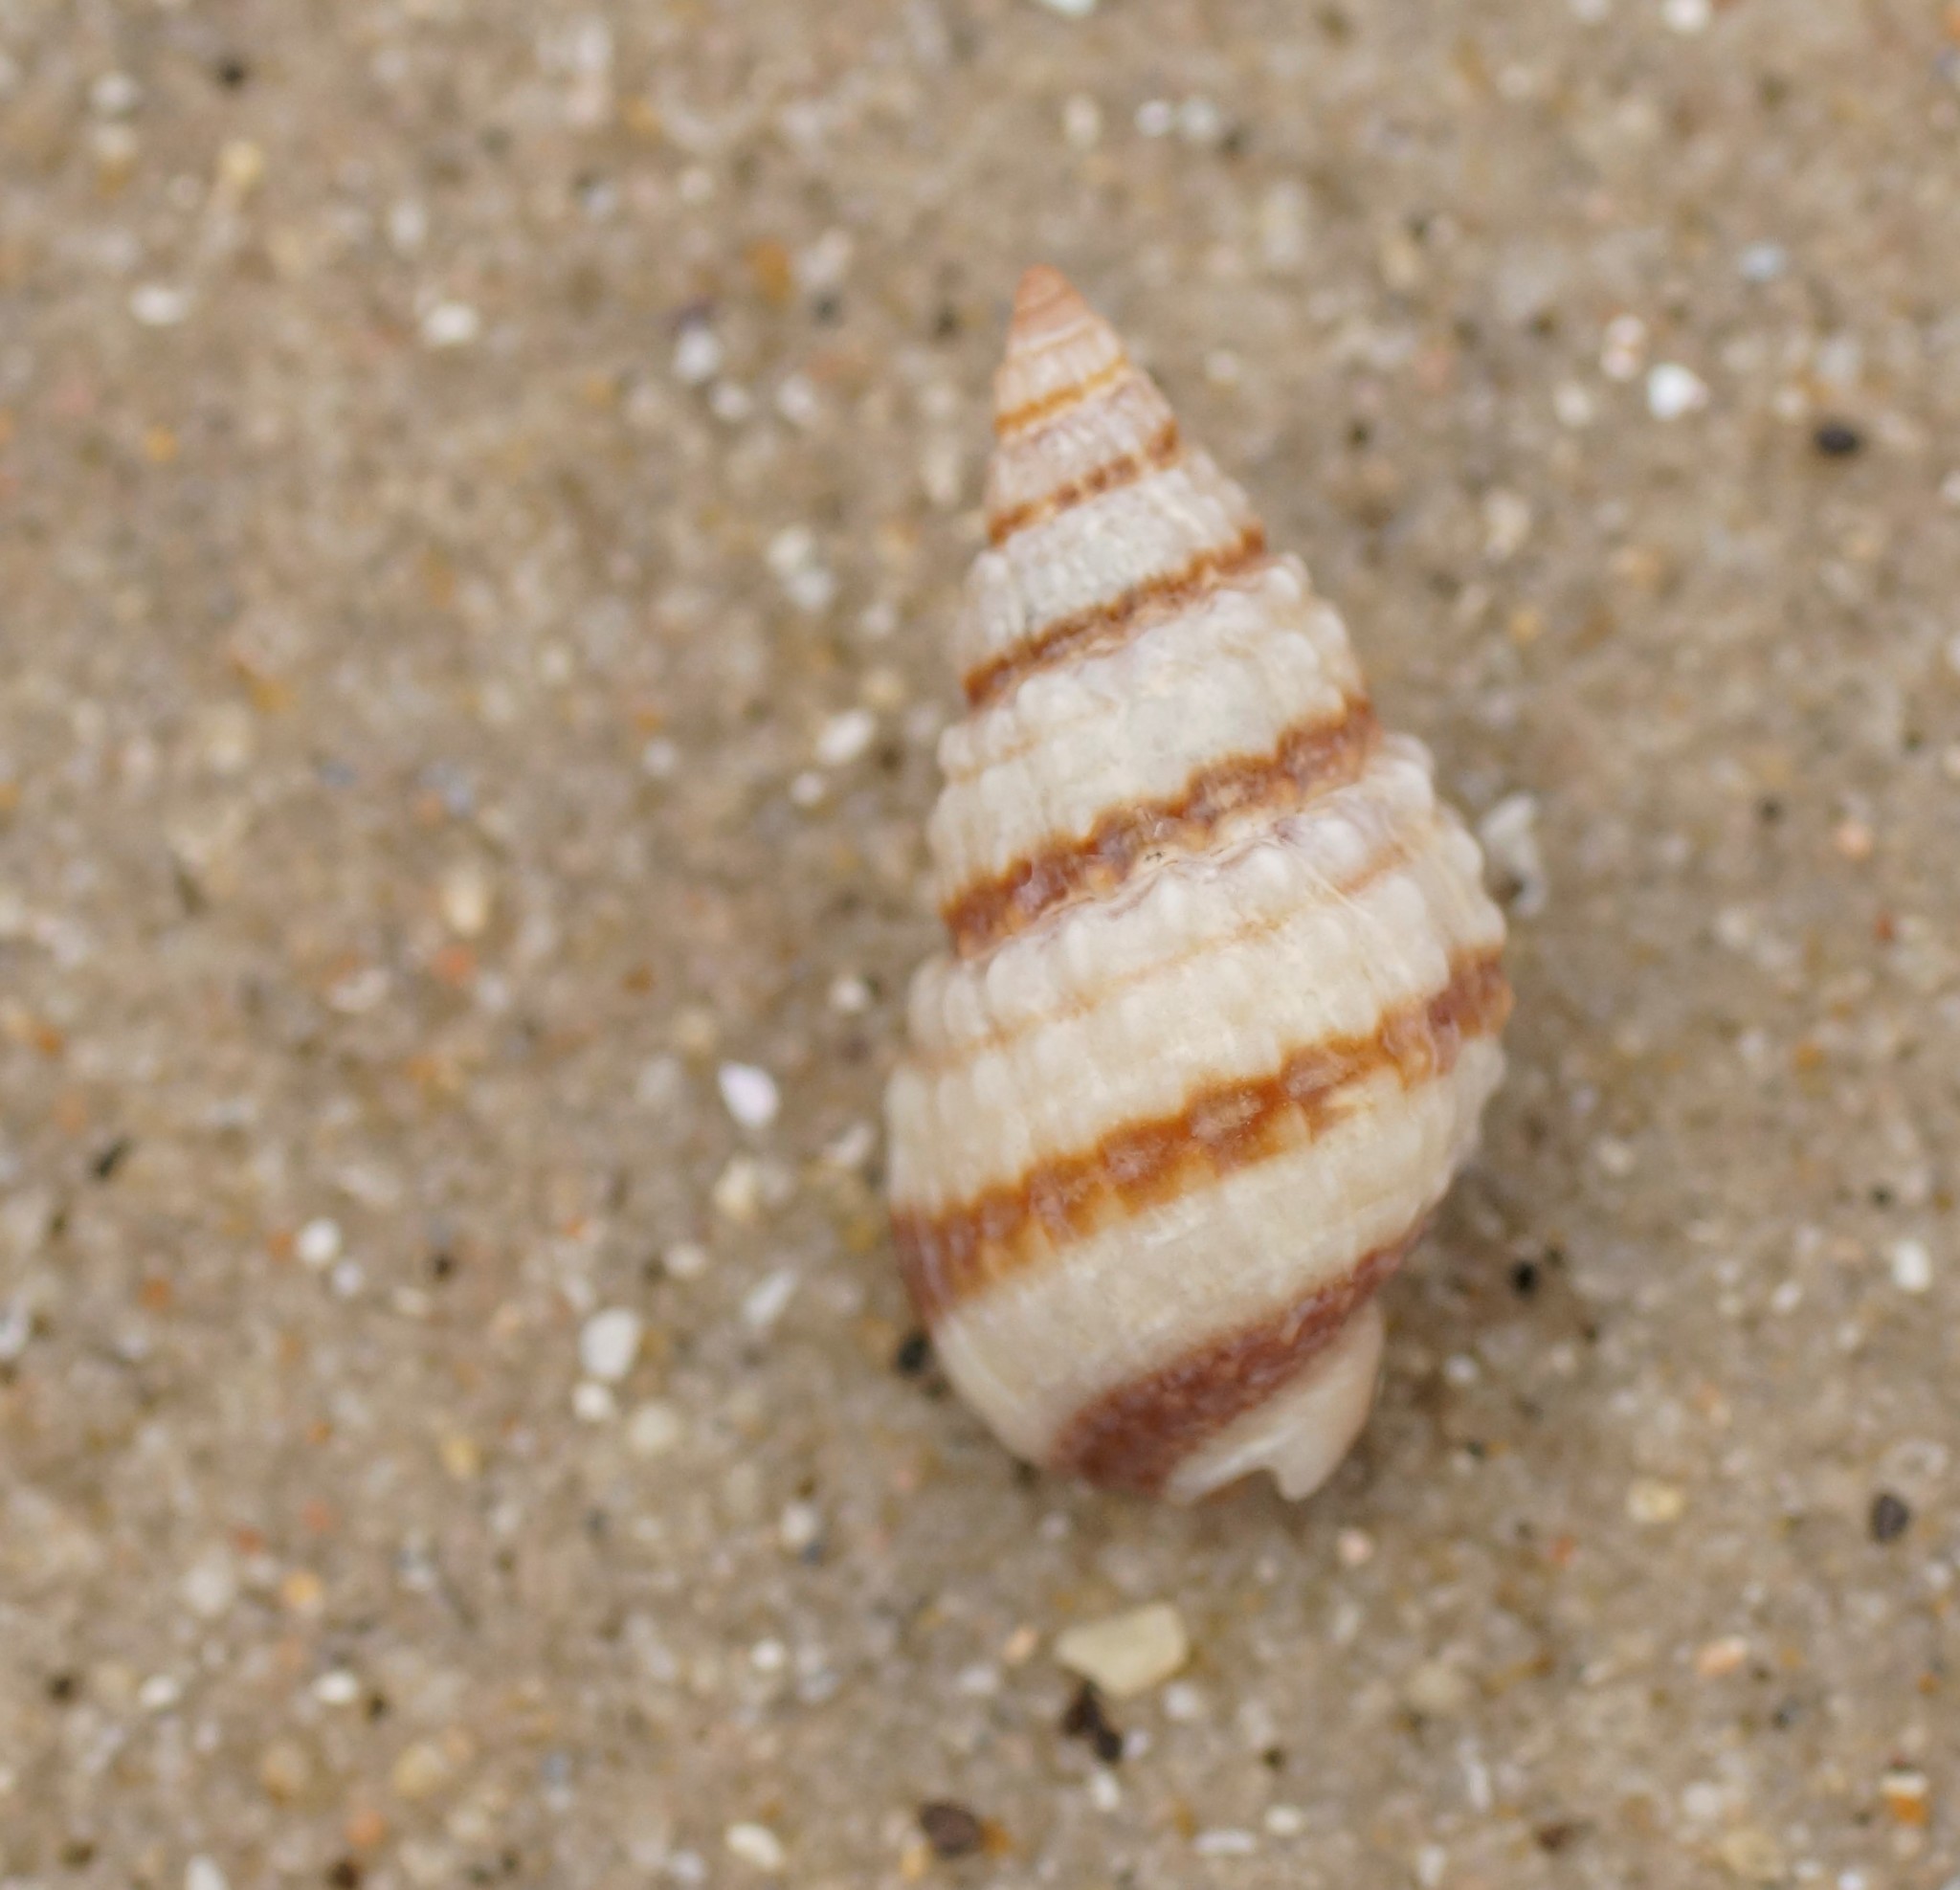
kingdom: Animalia
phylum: Mollusca
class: Gastropoda
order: Neogastropoda
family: Nassariidae
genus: Nassarius
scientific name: Nassarius pyrrhus
